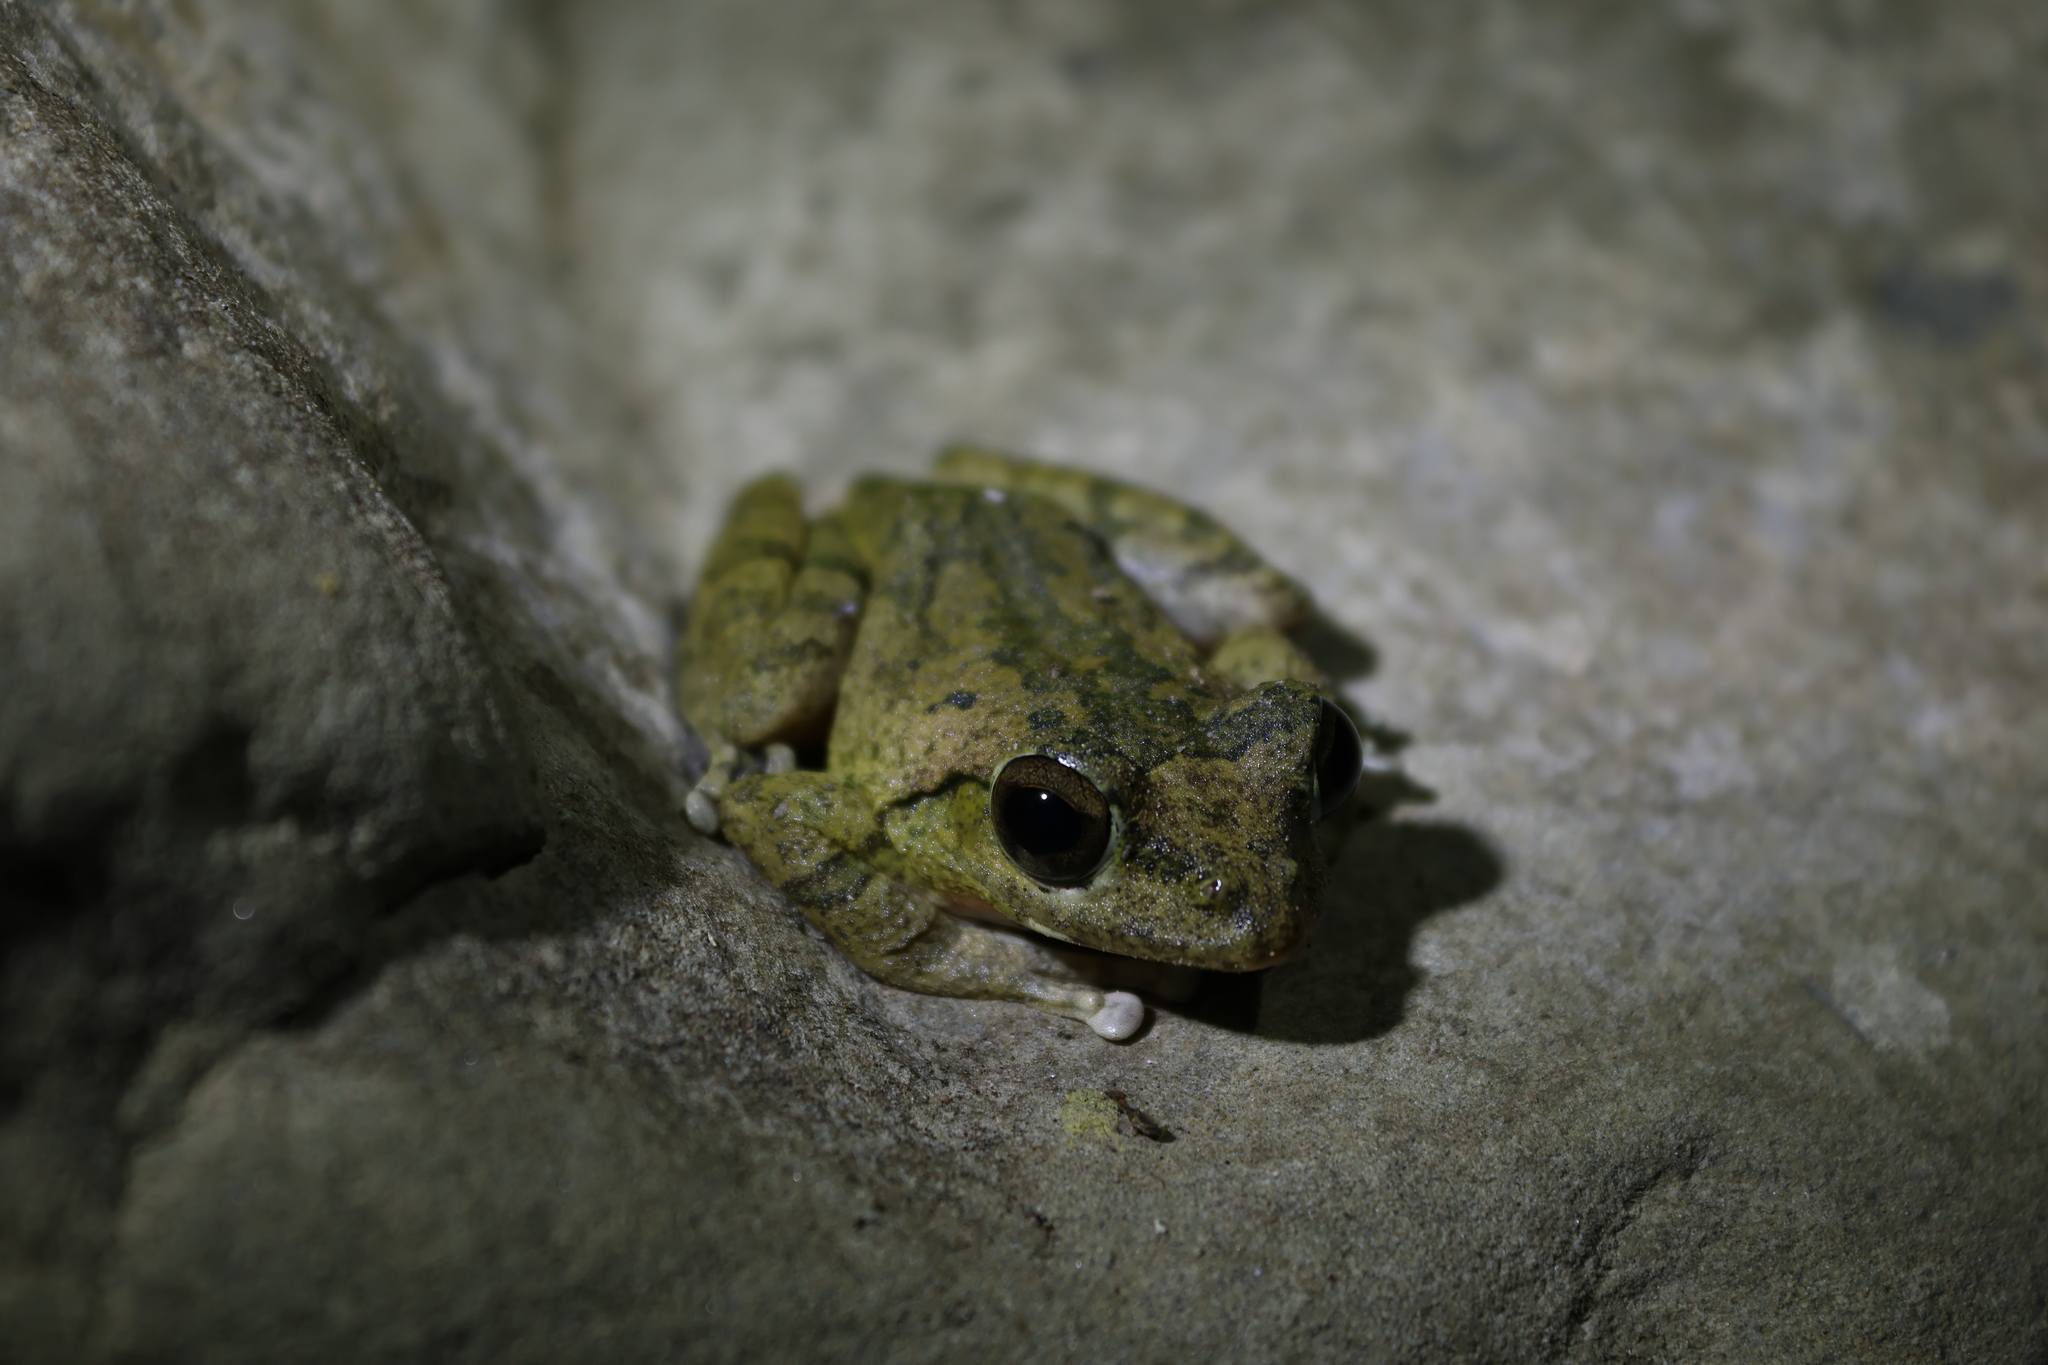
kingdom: Animalia
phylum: Chordata
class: Amphibia
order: Anura
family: Rhacophoridae
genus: Buergeria
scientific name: Buergeria robusta
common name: Brown treefrog
